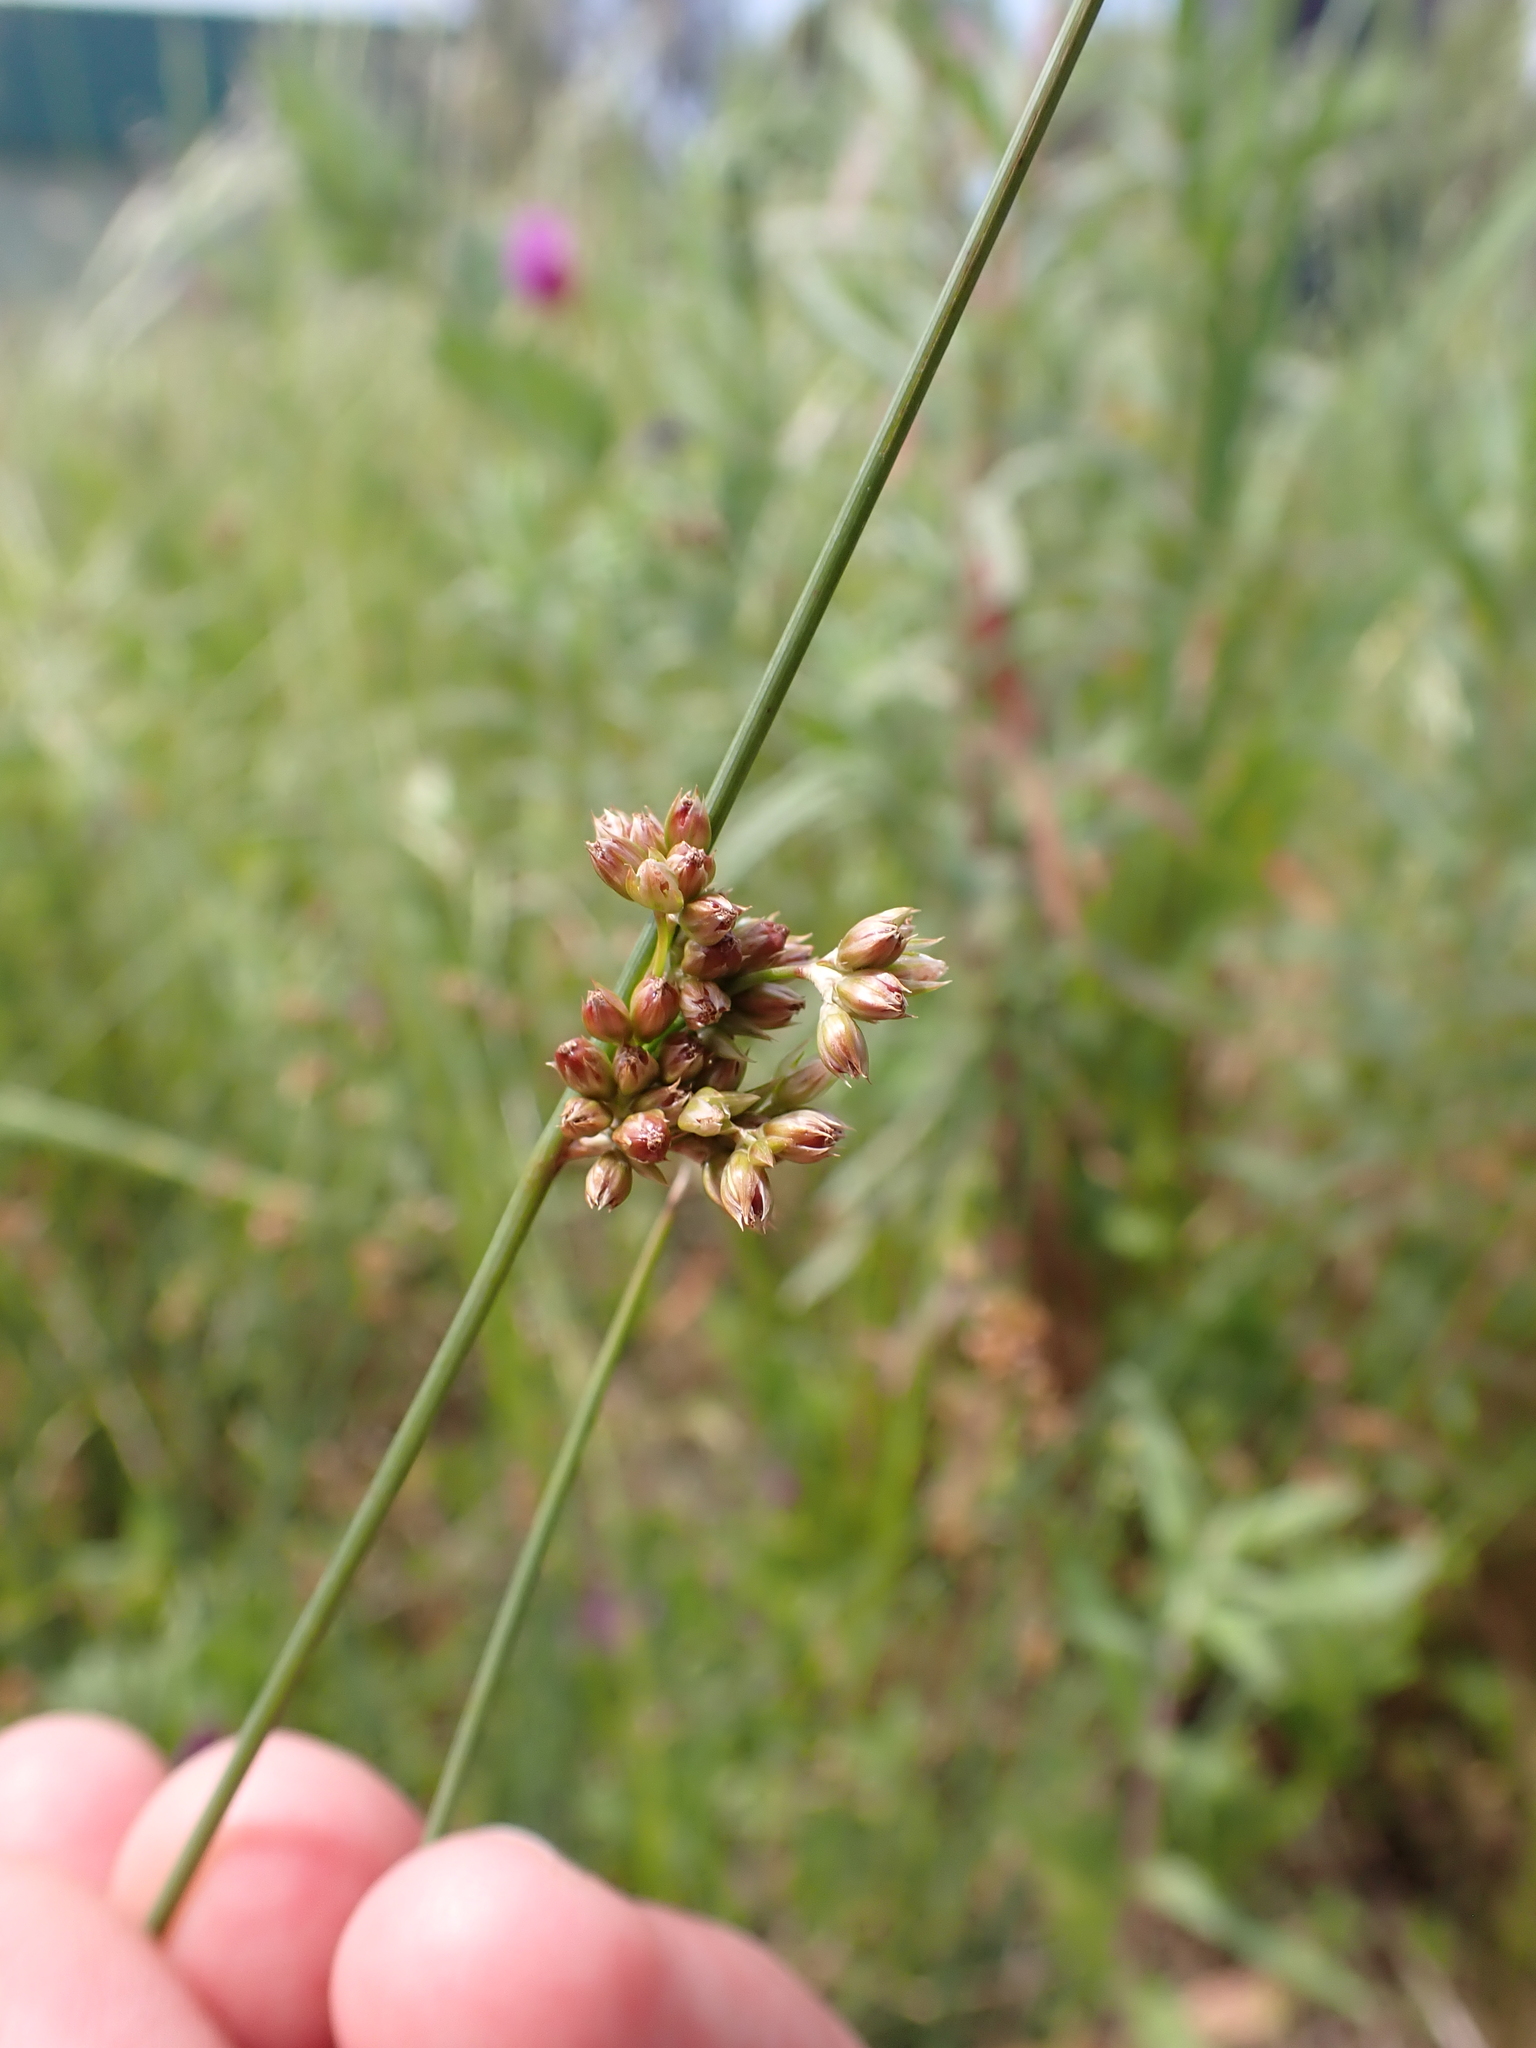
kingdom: Plantae
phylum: Tracheophyta
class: Liliopsida
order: Poales
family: Juncaceae
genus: Juncus
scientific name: Juncus subsecundus
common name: Fingered rush
